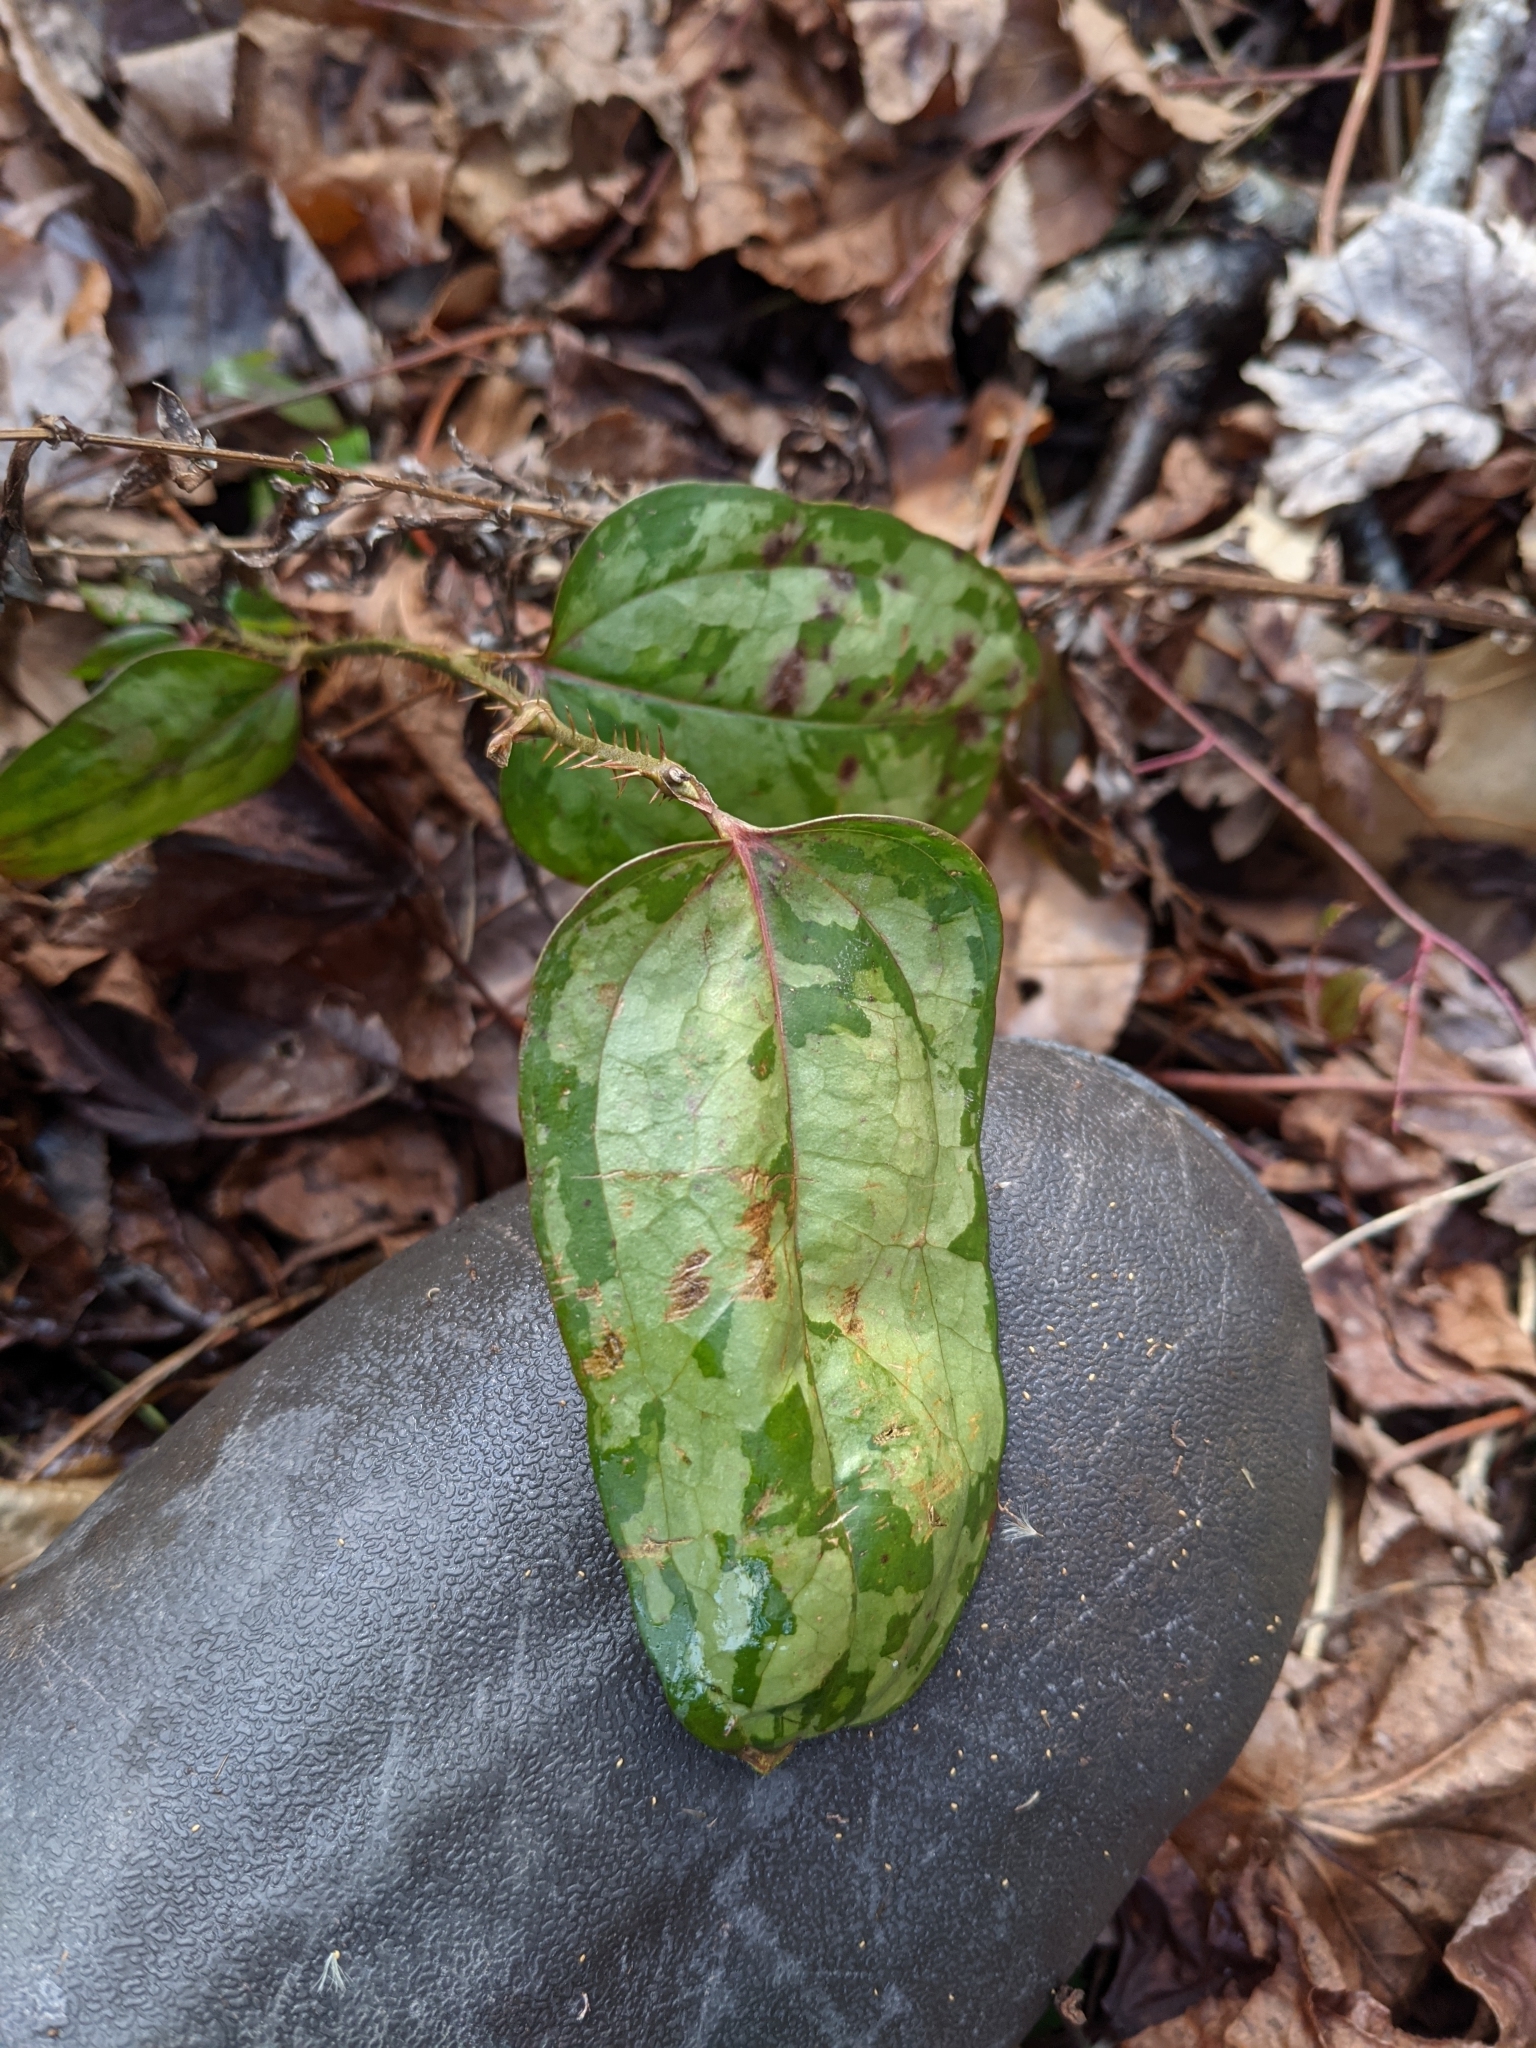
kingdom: Plantae
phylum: Tracheophyta
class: Liliopsida
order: Liliales
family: Smilacaceae
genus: Smilax
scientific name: Smilax glauca
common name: Cat greenbrier
